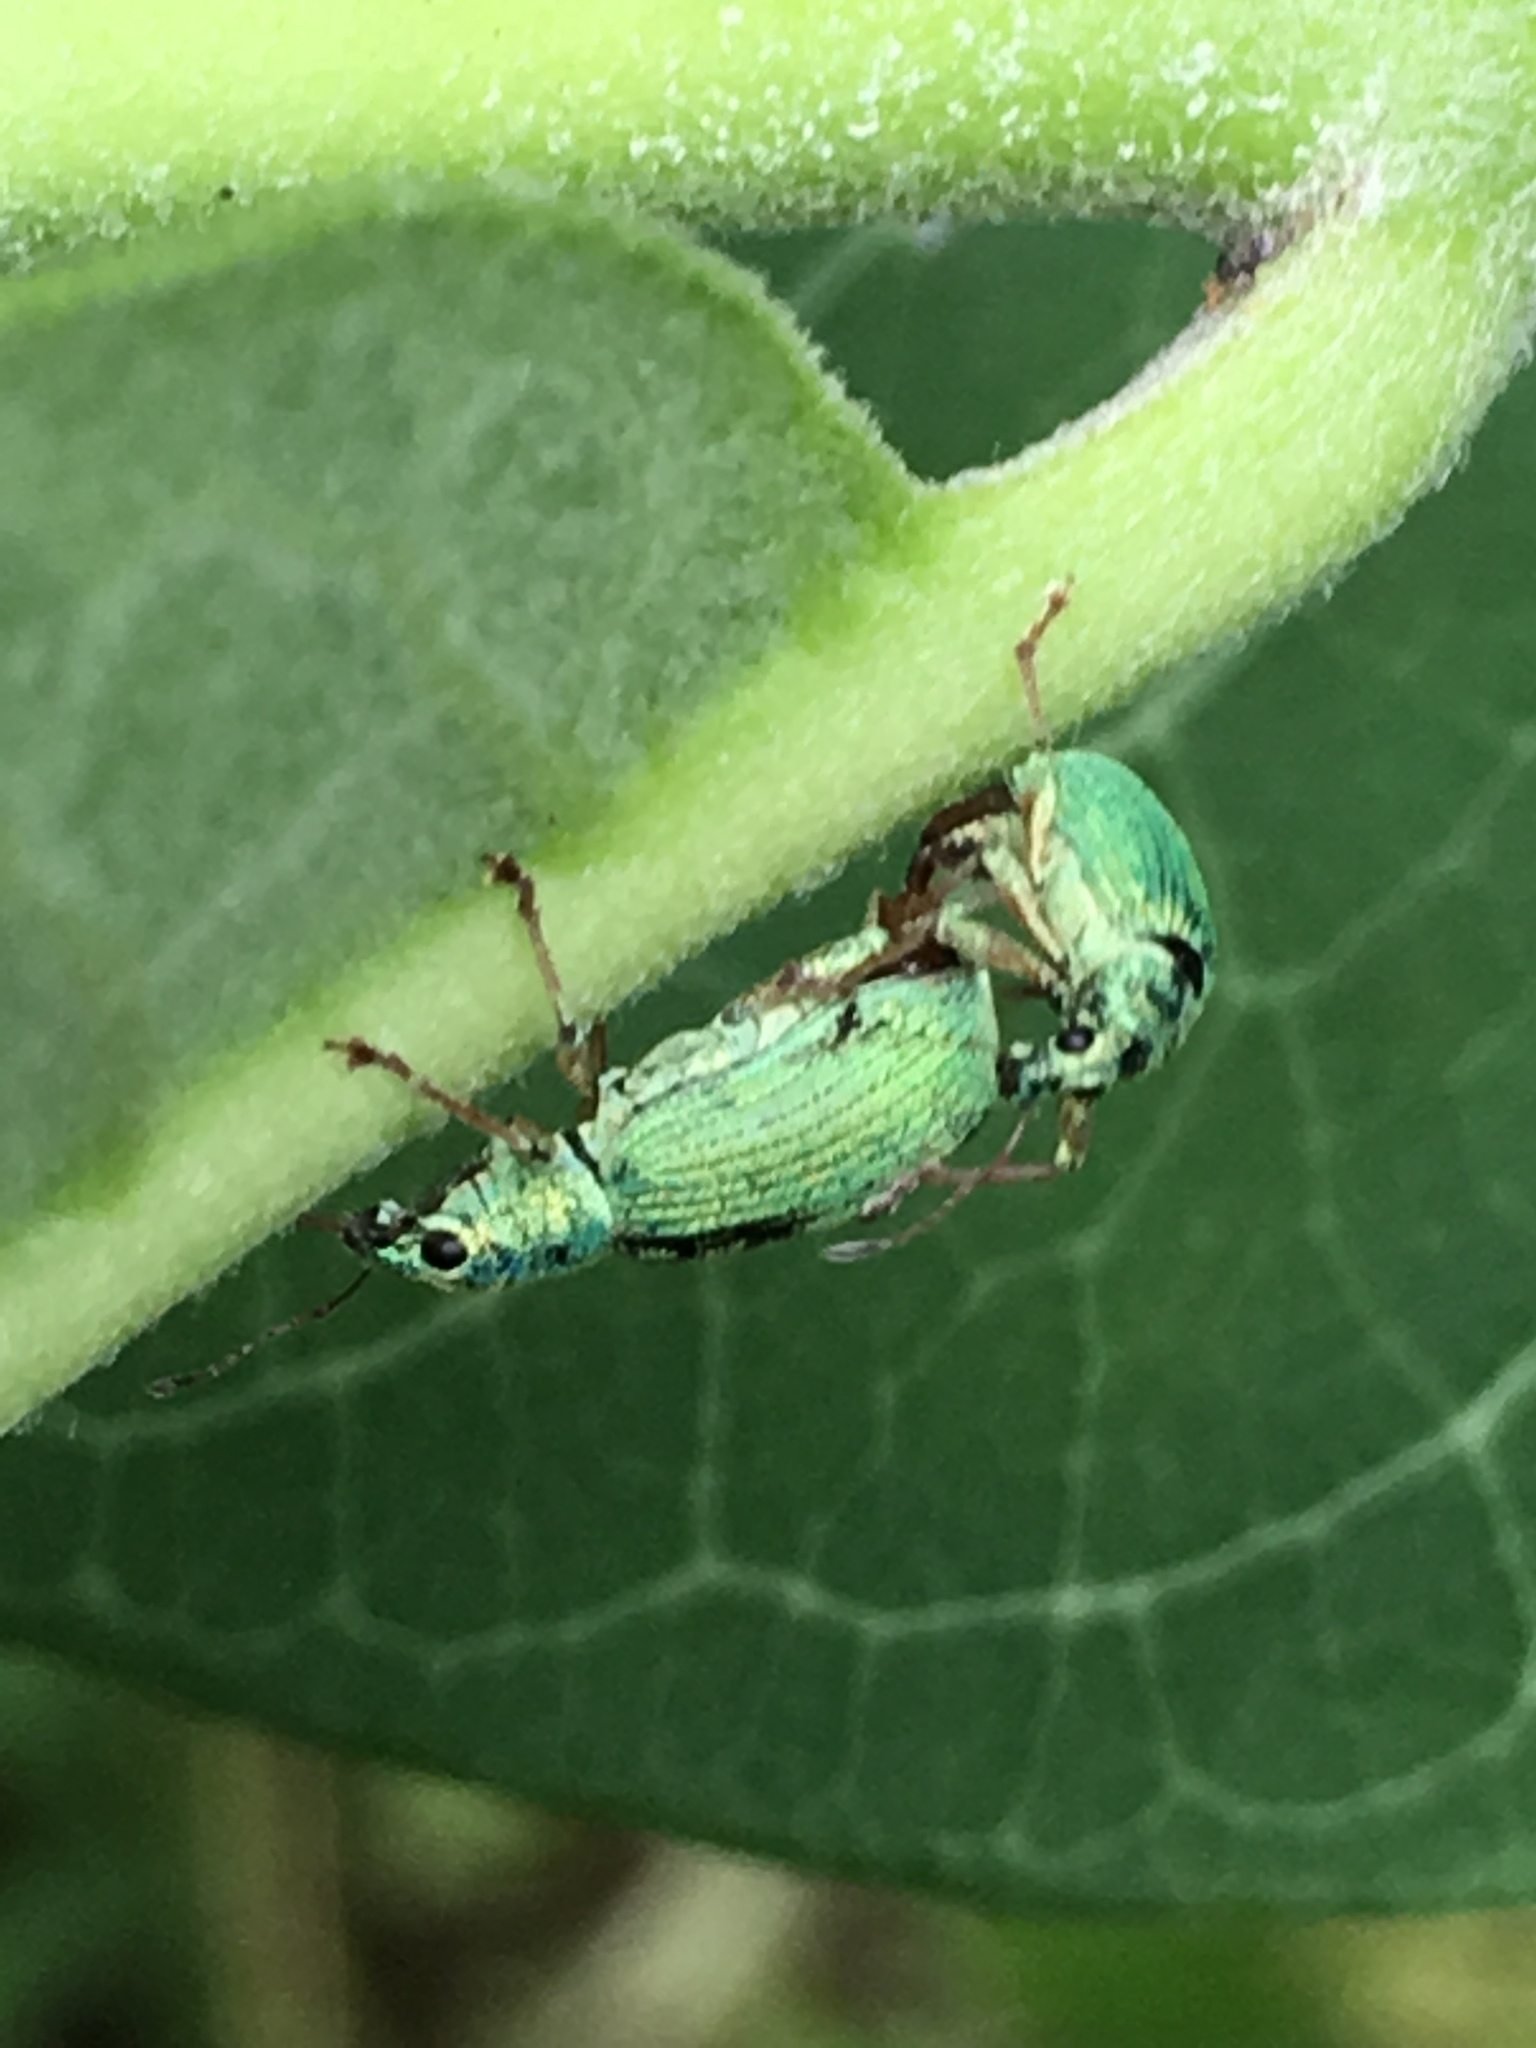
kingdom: Animalia
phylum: Arthropoda
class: Insecta
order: Coleoptera
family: Curculionidae
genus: Polydrusus
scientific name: Polydrusus formosus
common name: Weevil
